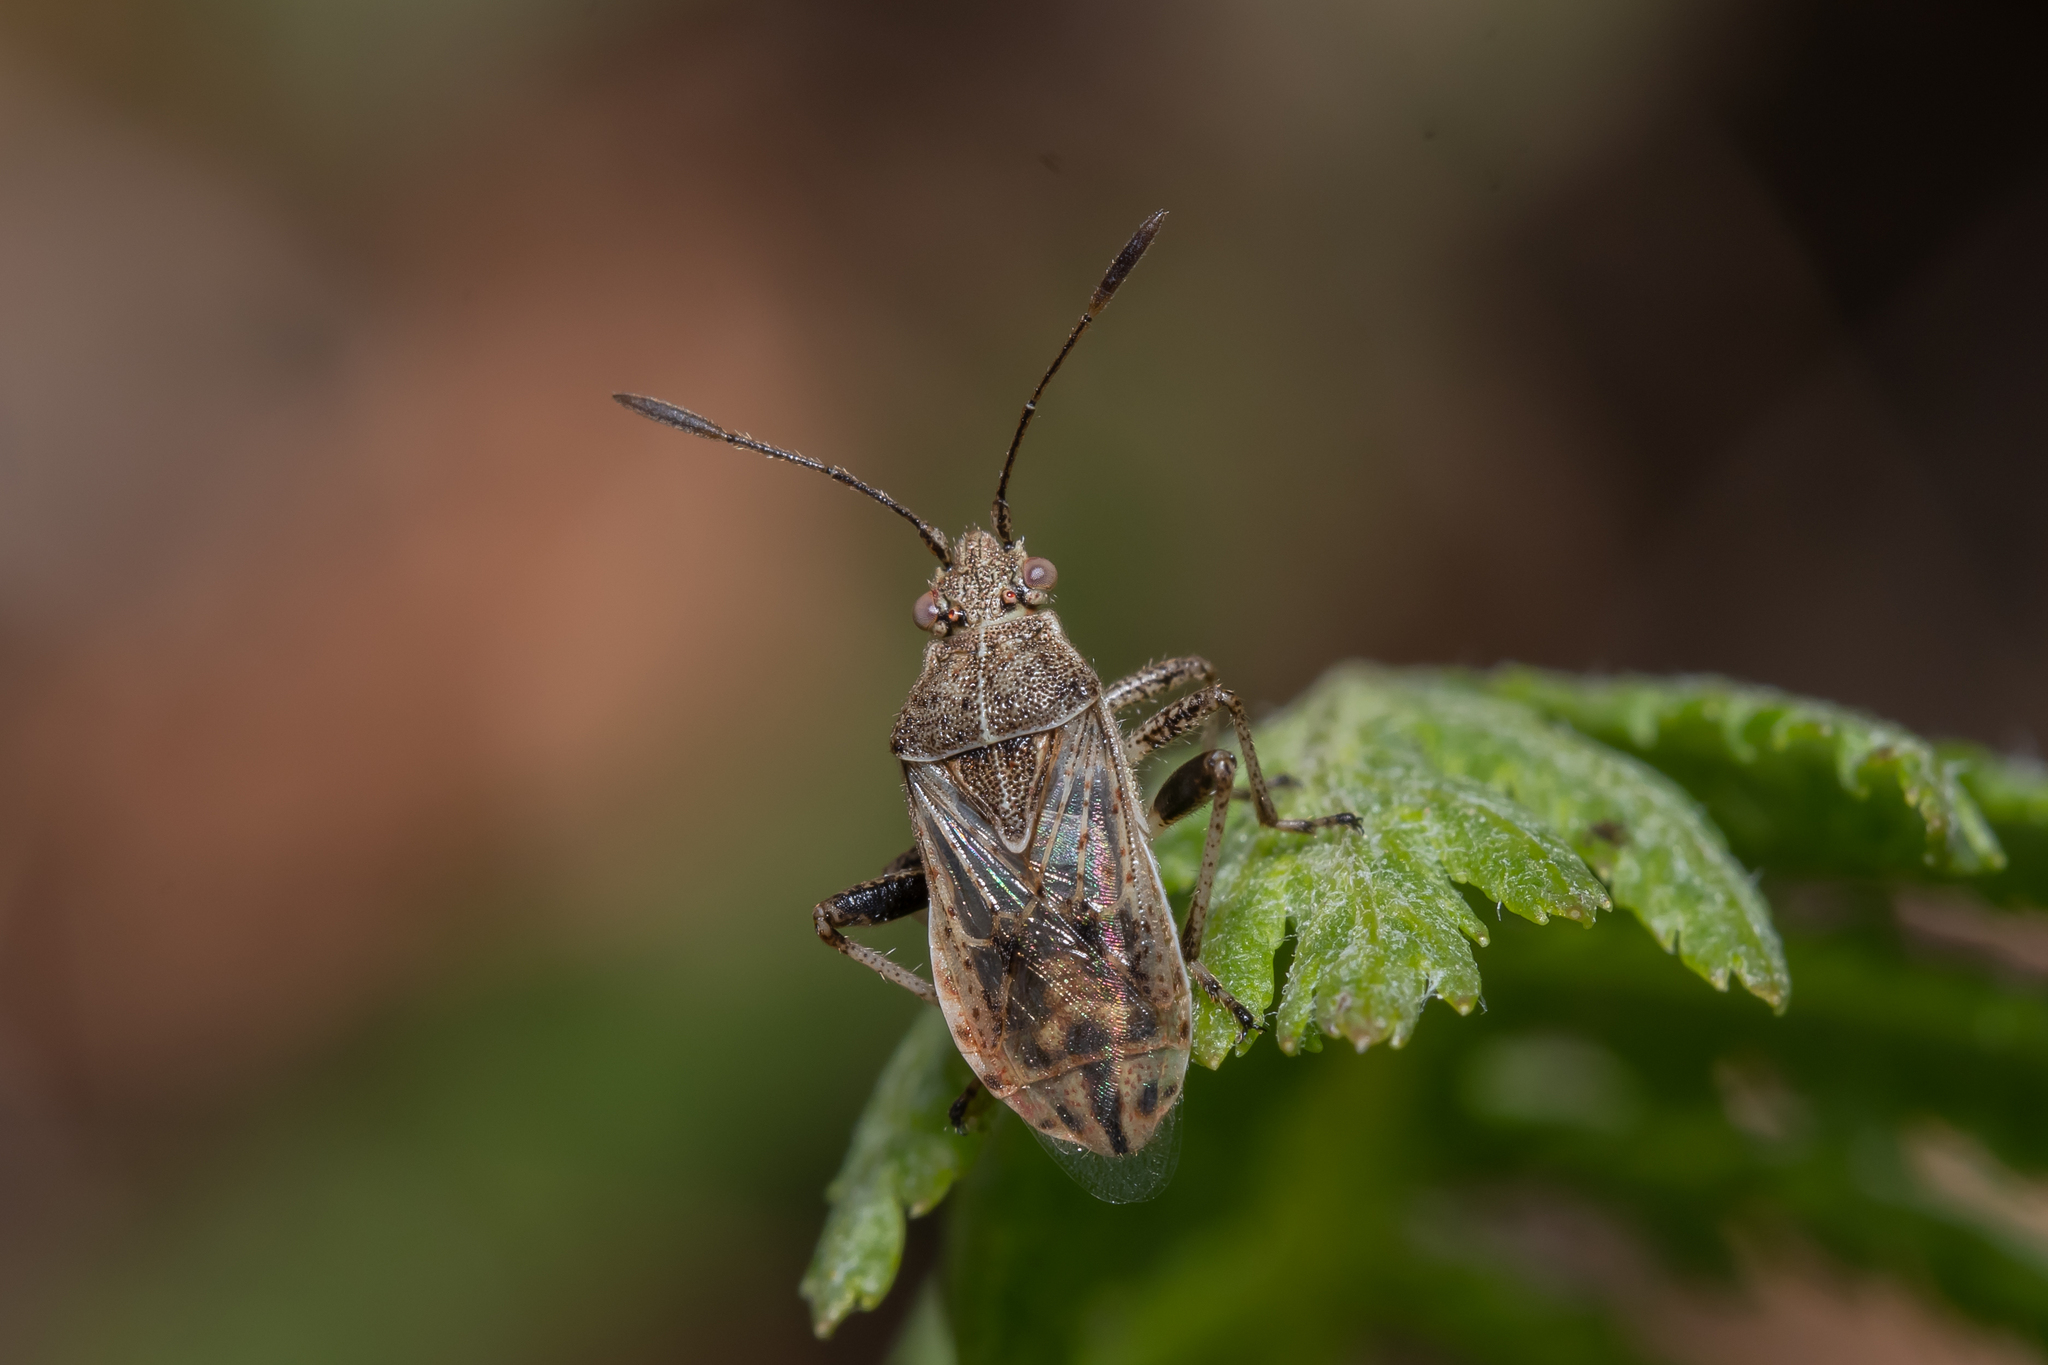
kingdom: Animalia
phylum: Arthropoda
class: Insecta
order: Hemiptera
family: Rhopalidae
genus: Stictopleurus
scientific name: Stictopleurus punctatonervosus
